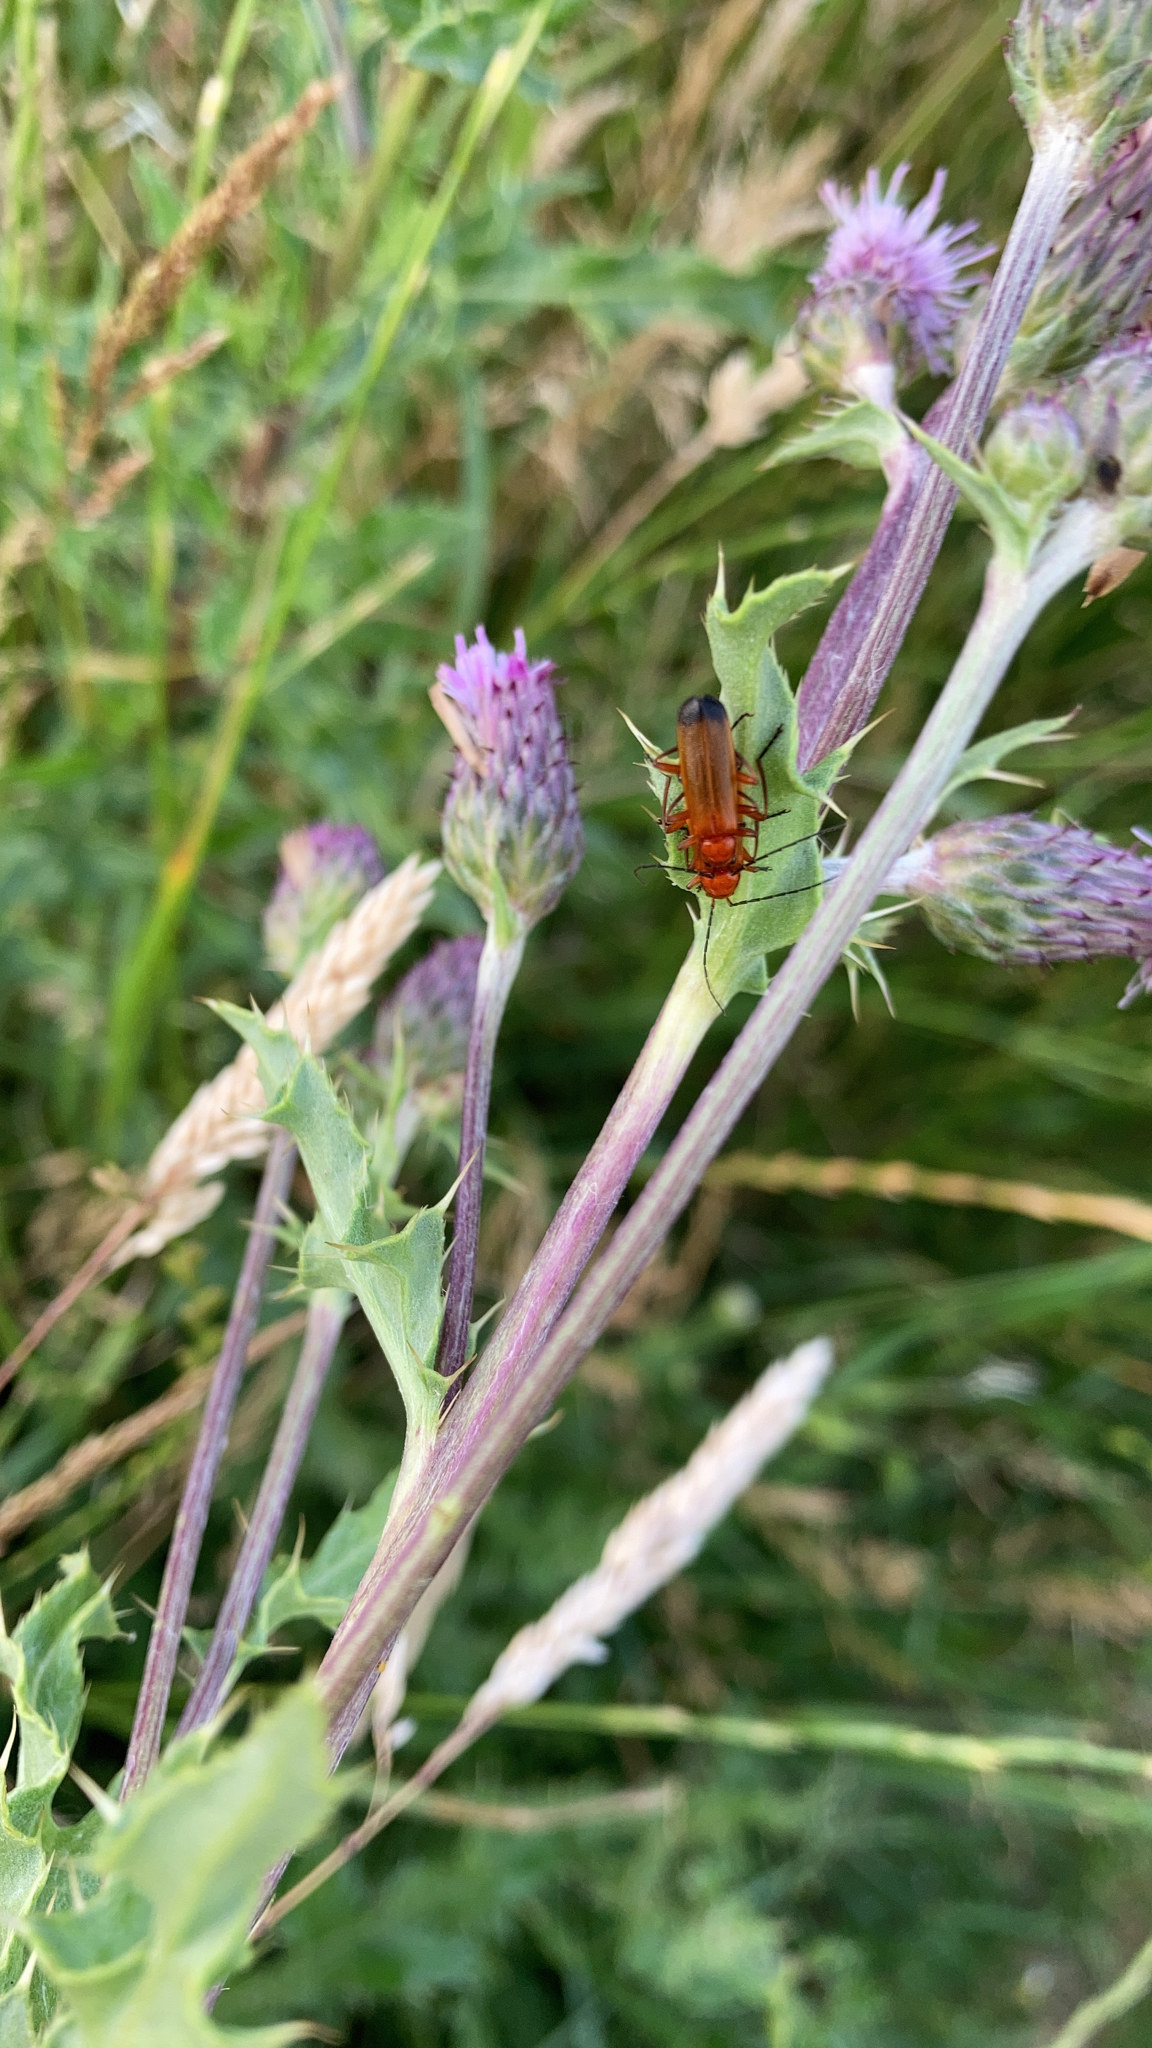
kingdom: Animalia
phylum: Arthropoda
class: Insecta
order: Coleoptera
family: Cantharidae
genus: Rhagonycha
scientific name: Rhagonycha fulva
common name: Common red soldier beetle
